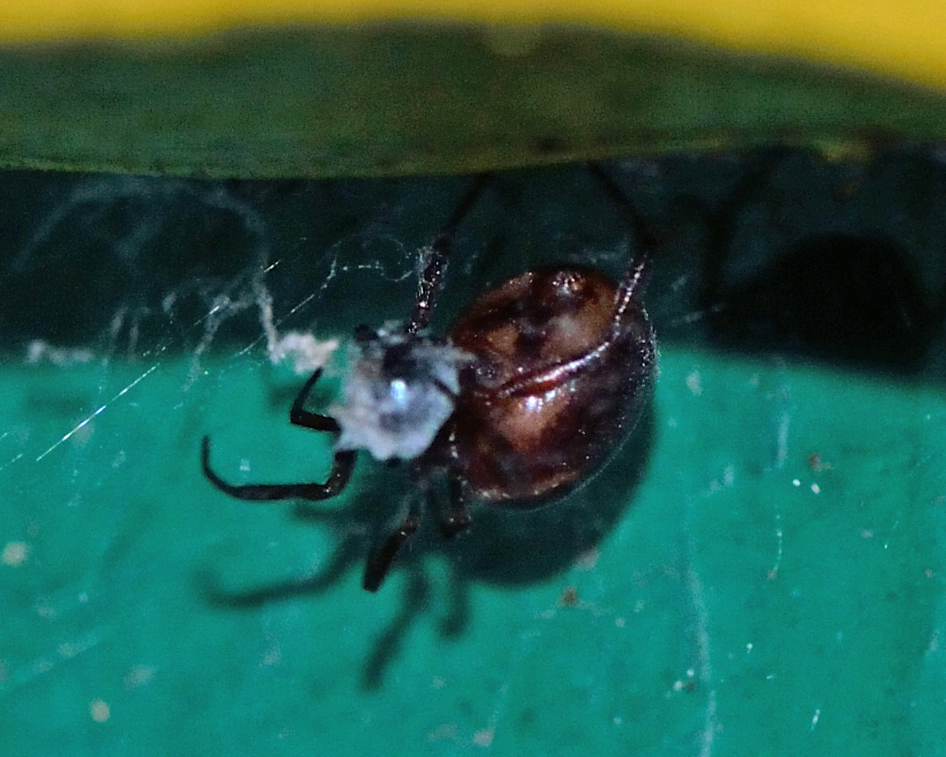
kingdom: Animalia
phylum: Arthropoda
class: Arachnida
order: Araneae
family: Theridiidae
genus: Steatoda
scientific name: Steatoda bipunctata
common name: False widow
